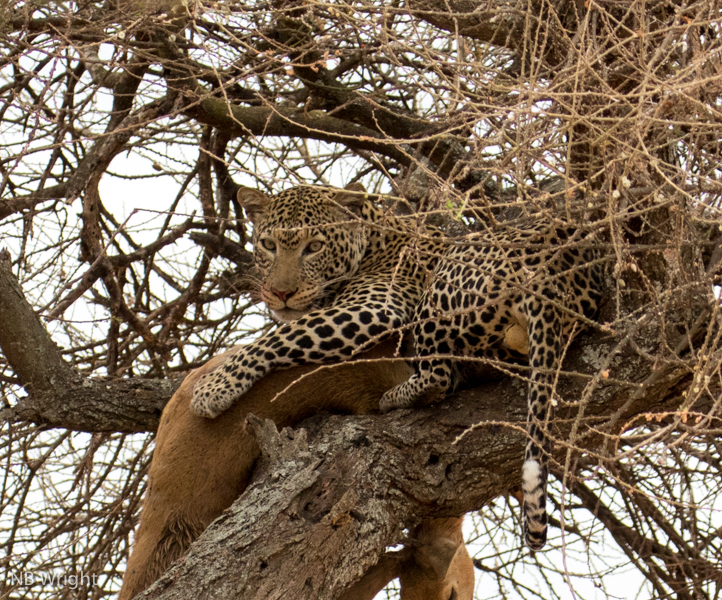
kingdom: Animalia
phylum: Chordata
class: Mammalia
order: Carnivora
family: Felidae
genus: Panthera
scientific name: Panthera pardus
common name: Leopard
